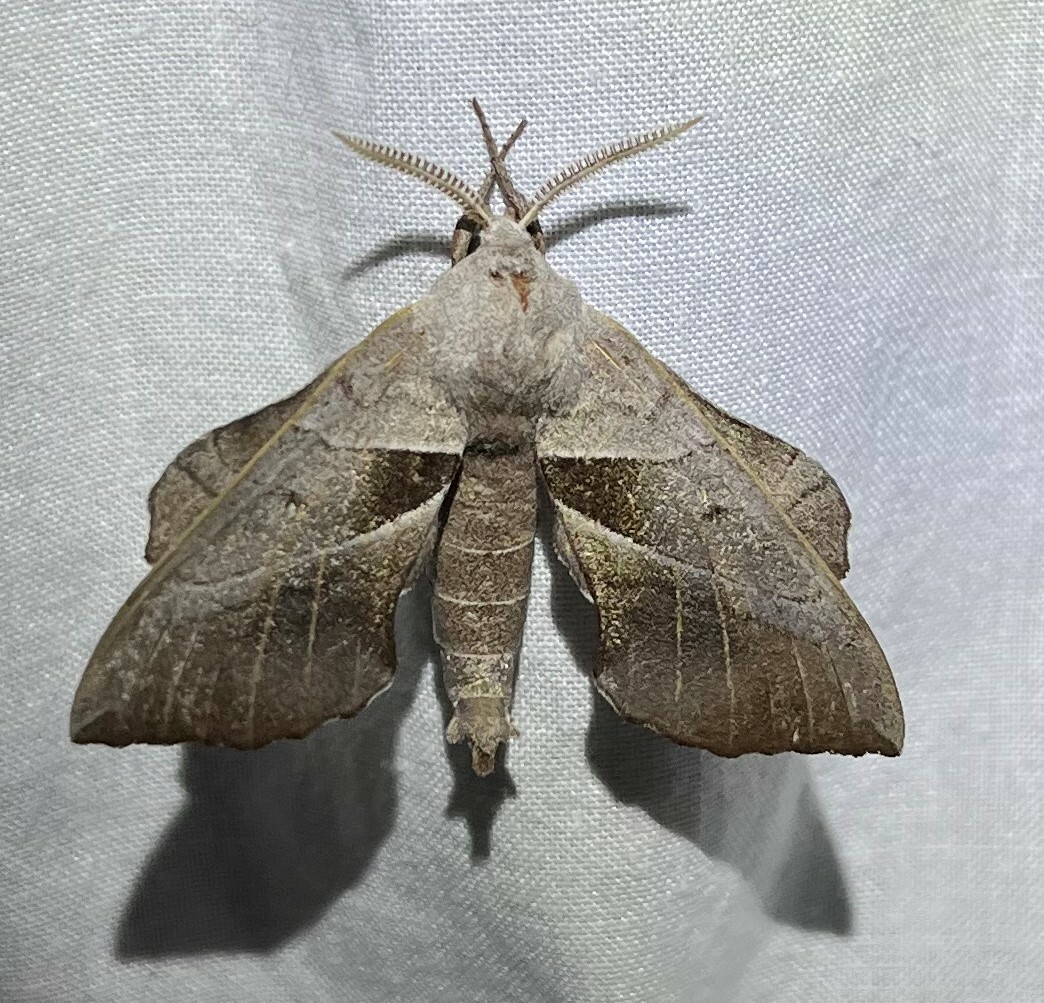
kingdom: Animalia
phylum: Arthropoda
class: Insecta
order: Lepidoptera
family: Sphingidae
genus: Amorpha
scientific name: Amorpha juglandis
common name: Walnut sphinx
